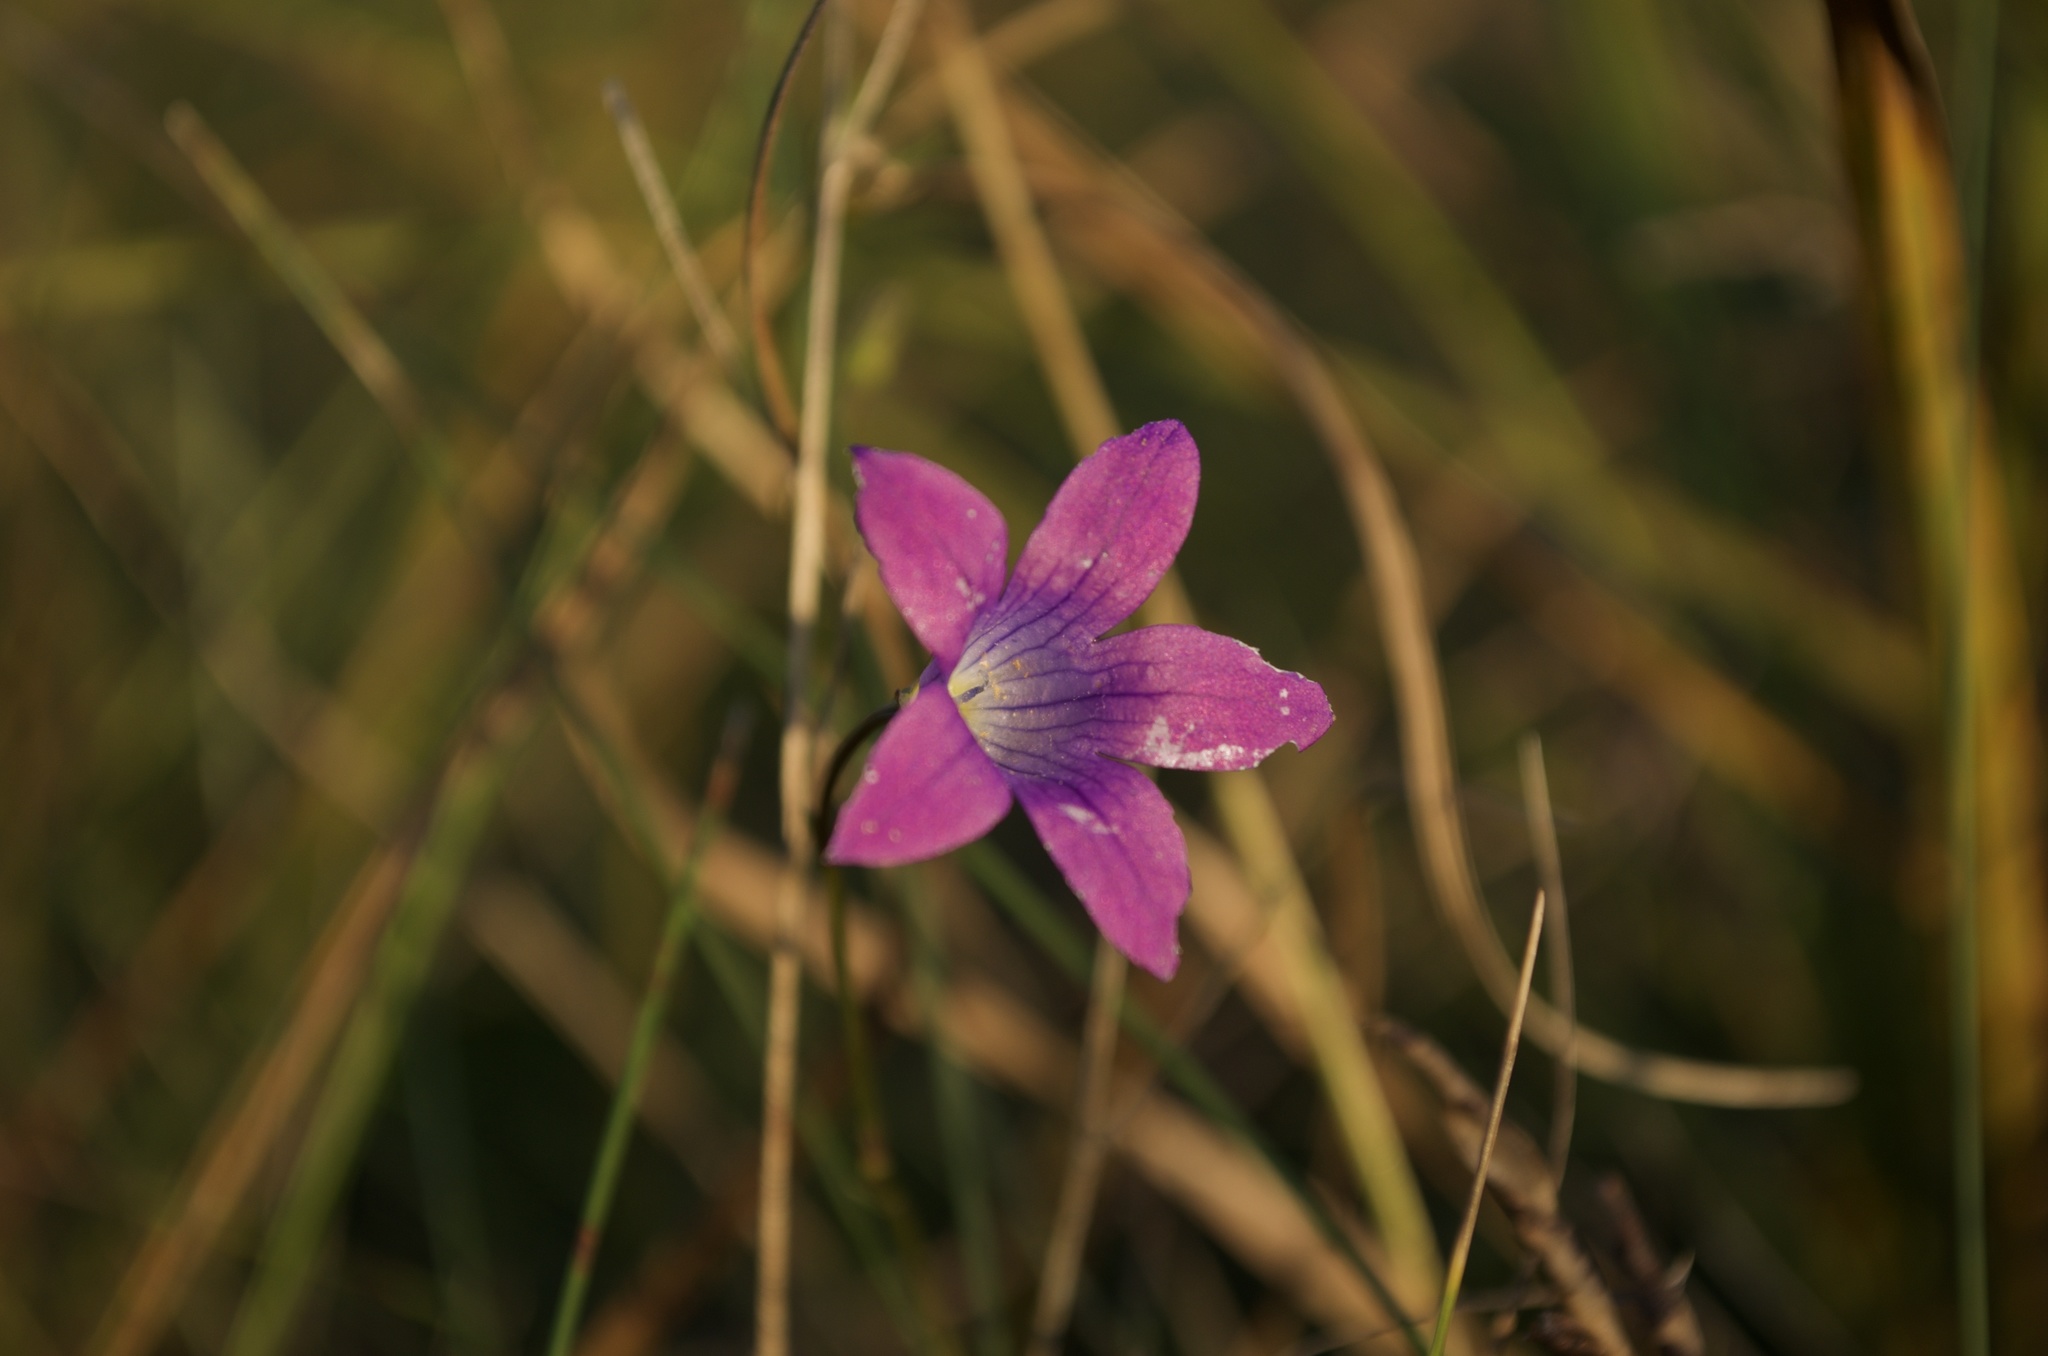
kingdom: Plantae
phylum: Tracheophyta
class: Magnoliopsida
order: Asterales
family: Campanulaceae
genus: Campanula
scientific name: Campanula patula
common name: Spreading bellflower
